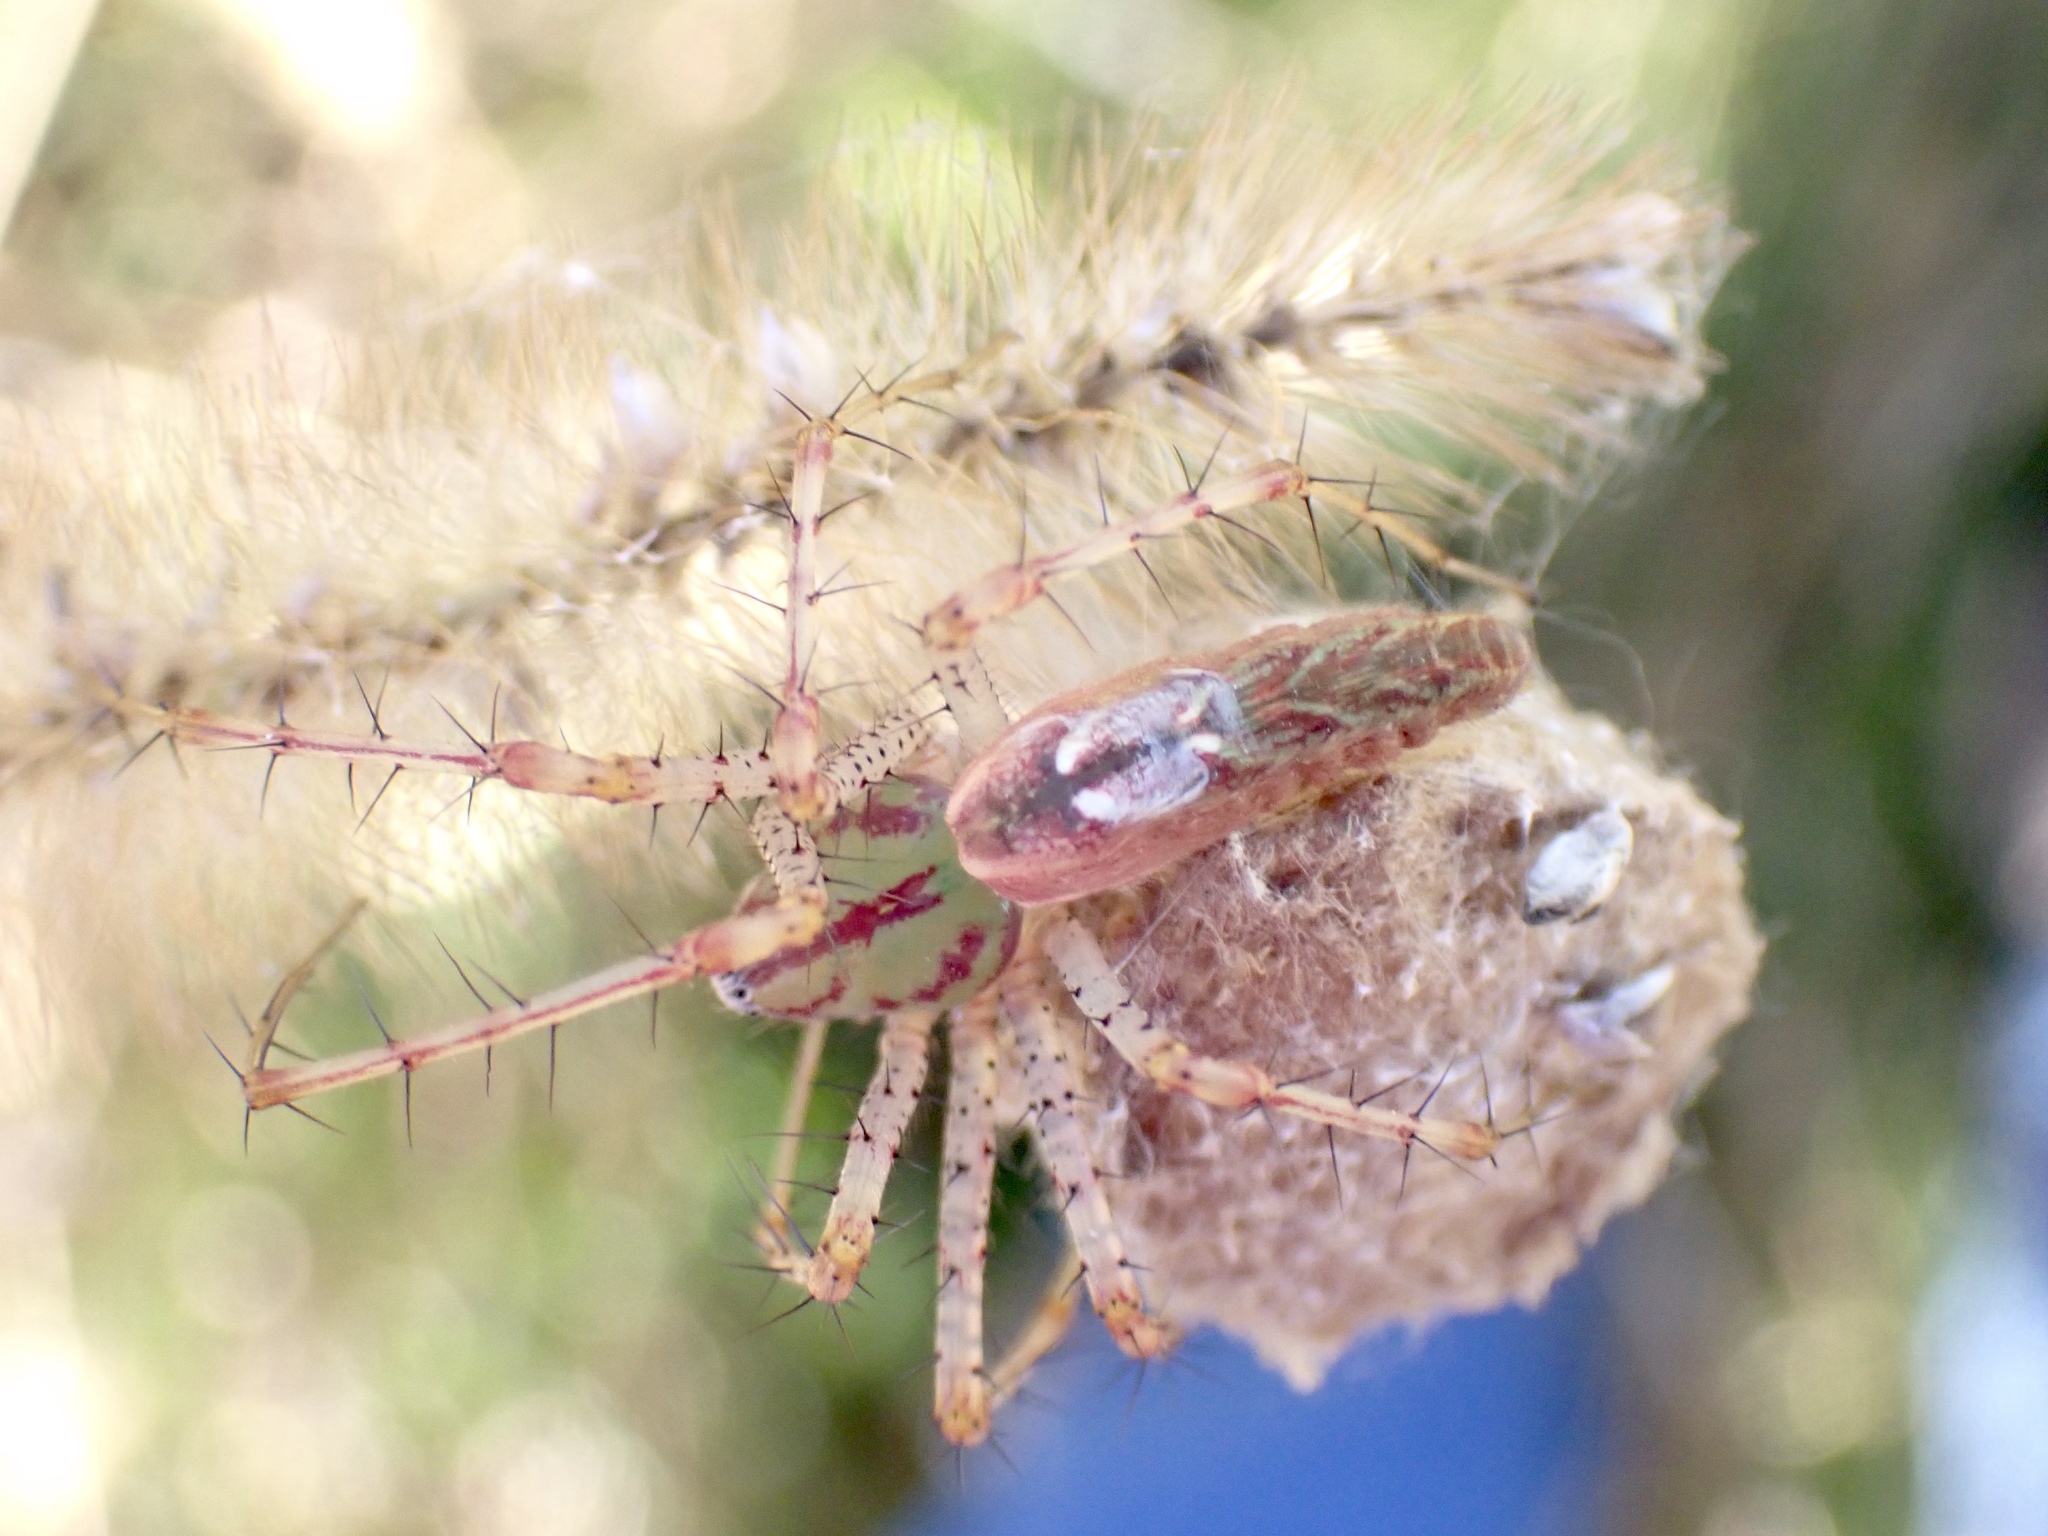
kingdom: Animalia
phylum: Arthropoda
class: Arachnida
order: Araneae
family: Oxyopidae
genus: Peucetia
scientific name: Peucetia viridans
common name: Lynx spiders
